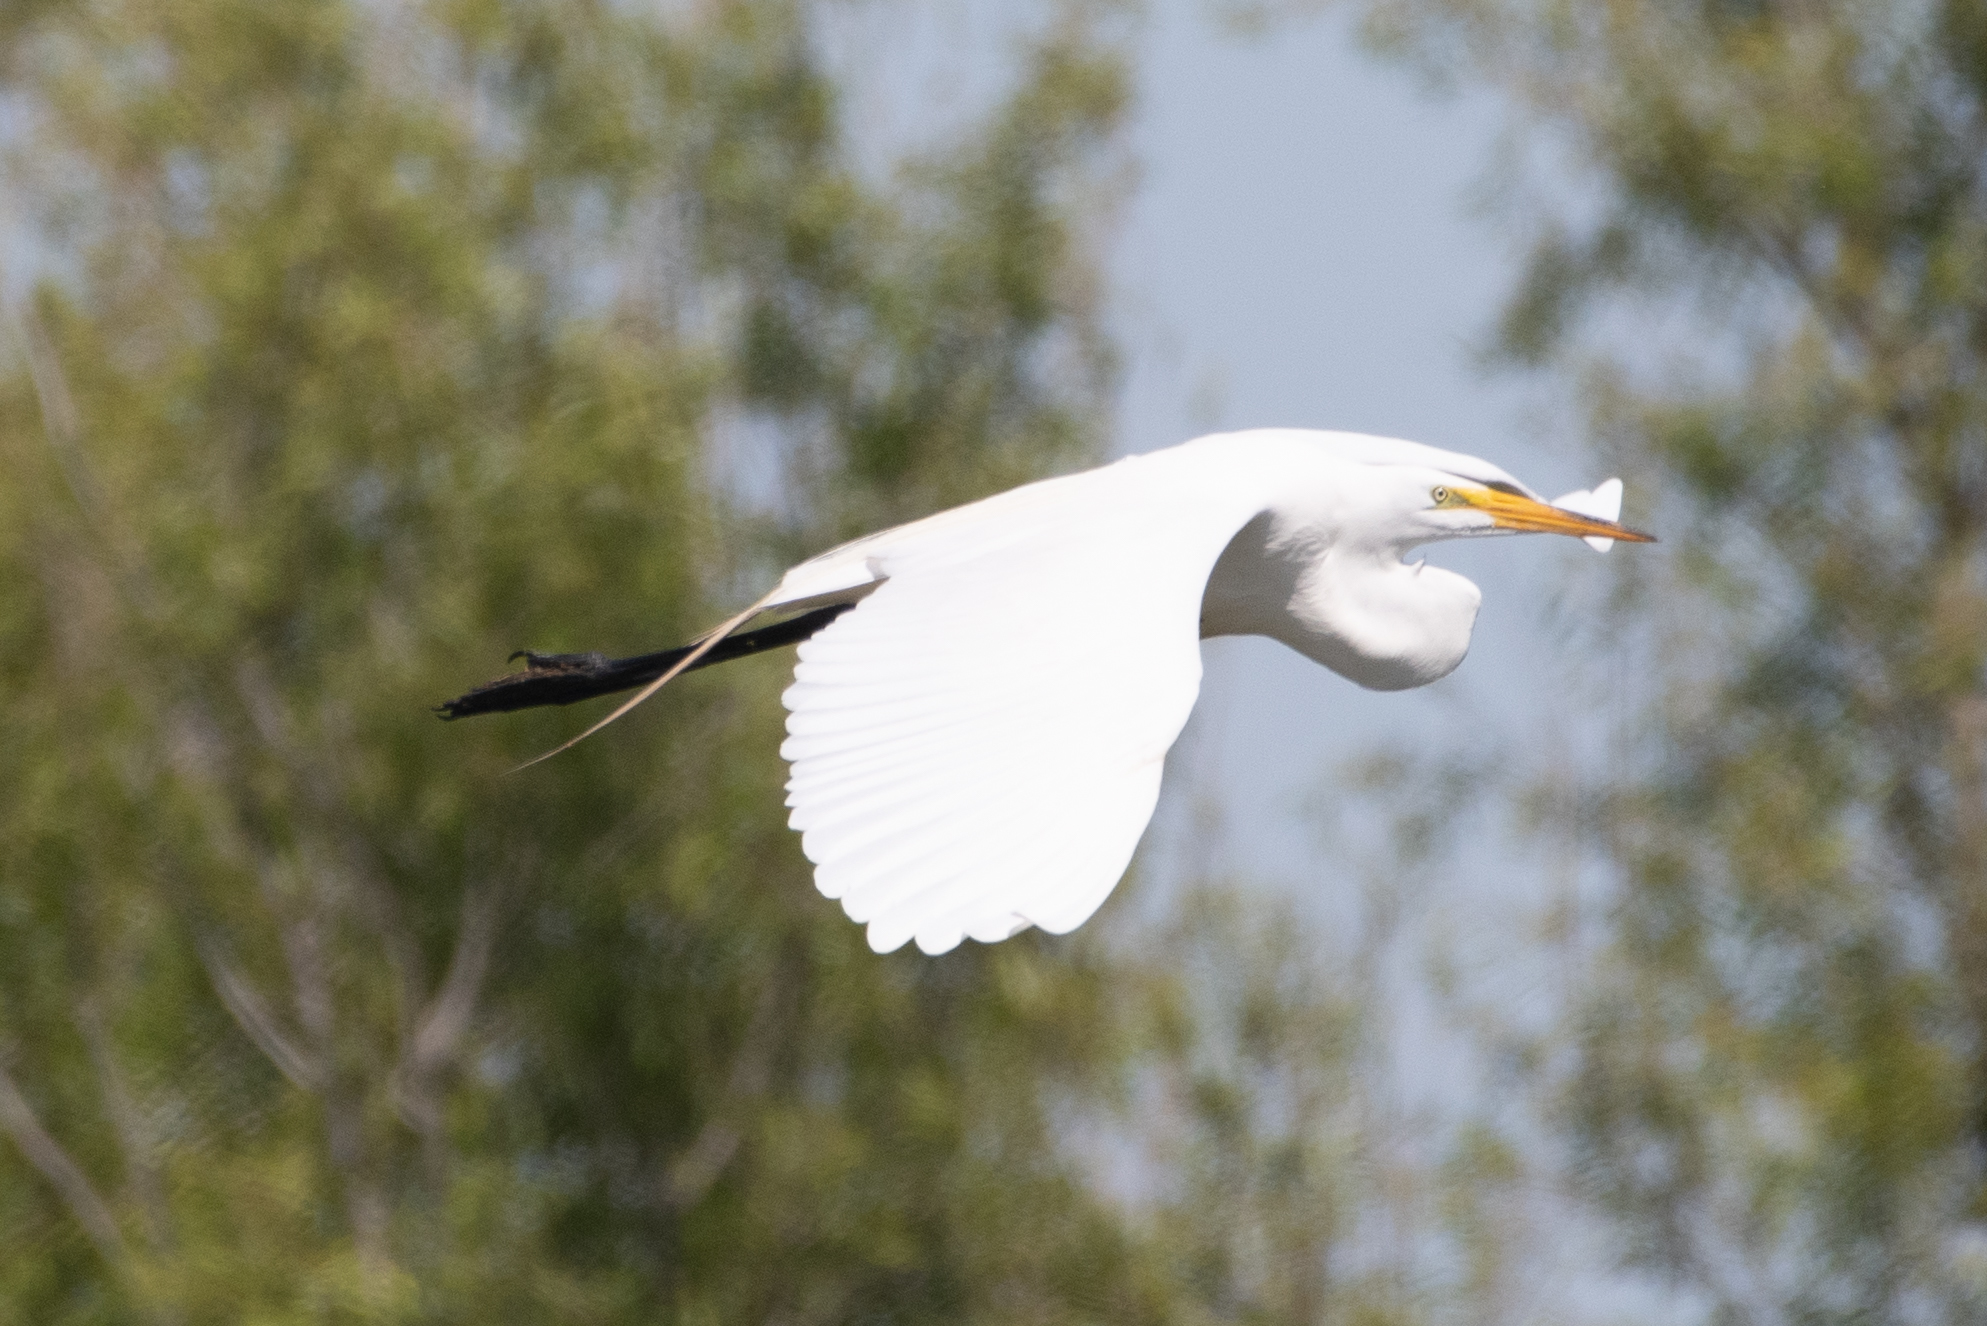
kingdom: Animalia
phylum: Chordata
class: Aves
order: Pelecaniformes
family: Ardeidae
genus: Ardea
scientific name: Ardea alba
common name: Great egret
